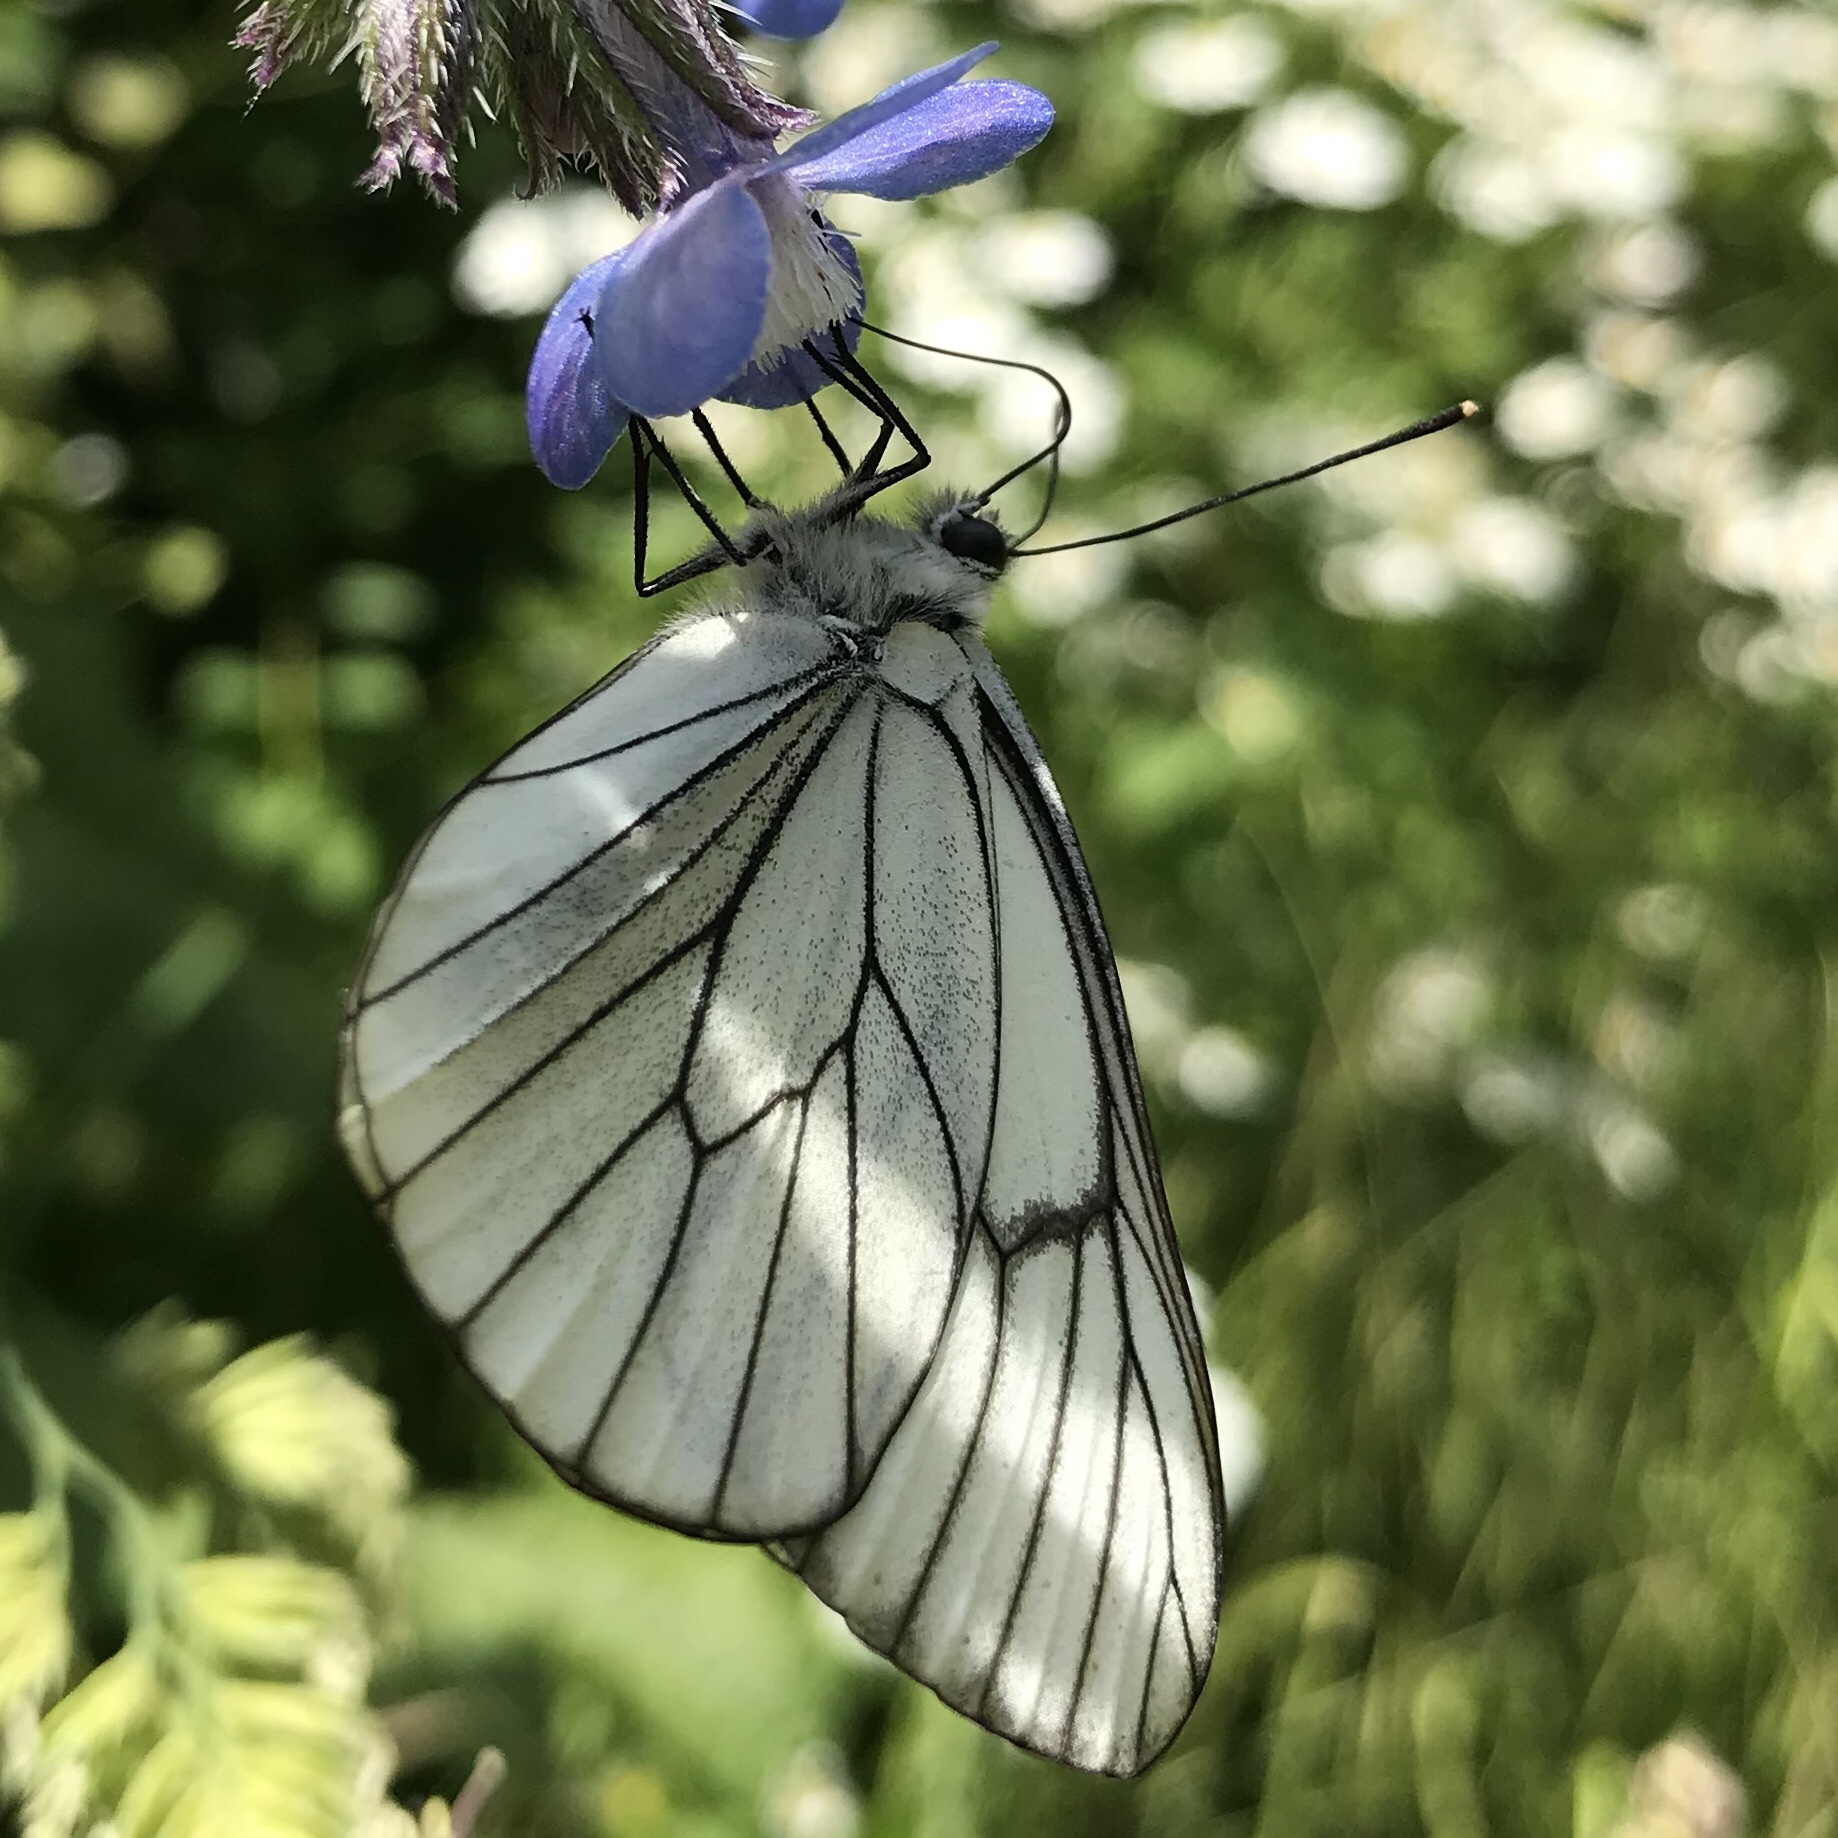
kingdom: Animalia
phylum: Arthropoda
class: Insecta
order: Lepidoptera
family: Pieridae
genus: Aporia
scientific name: Aporia crataegi
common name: Black-veined white
